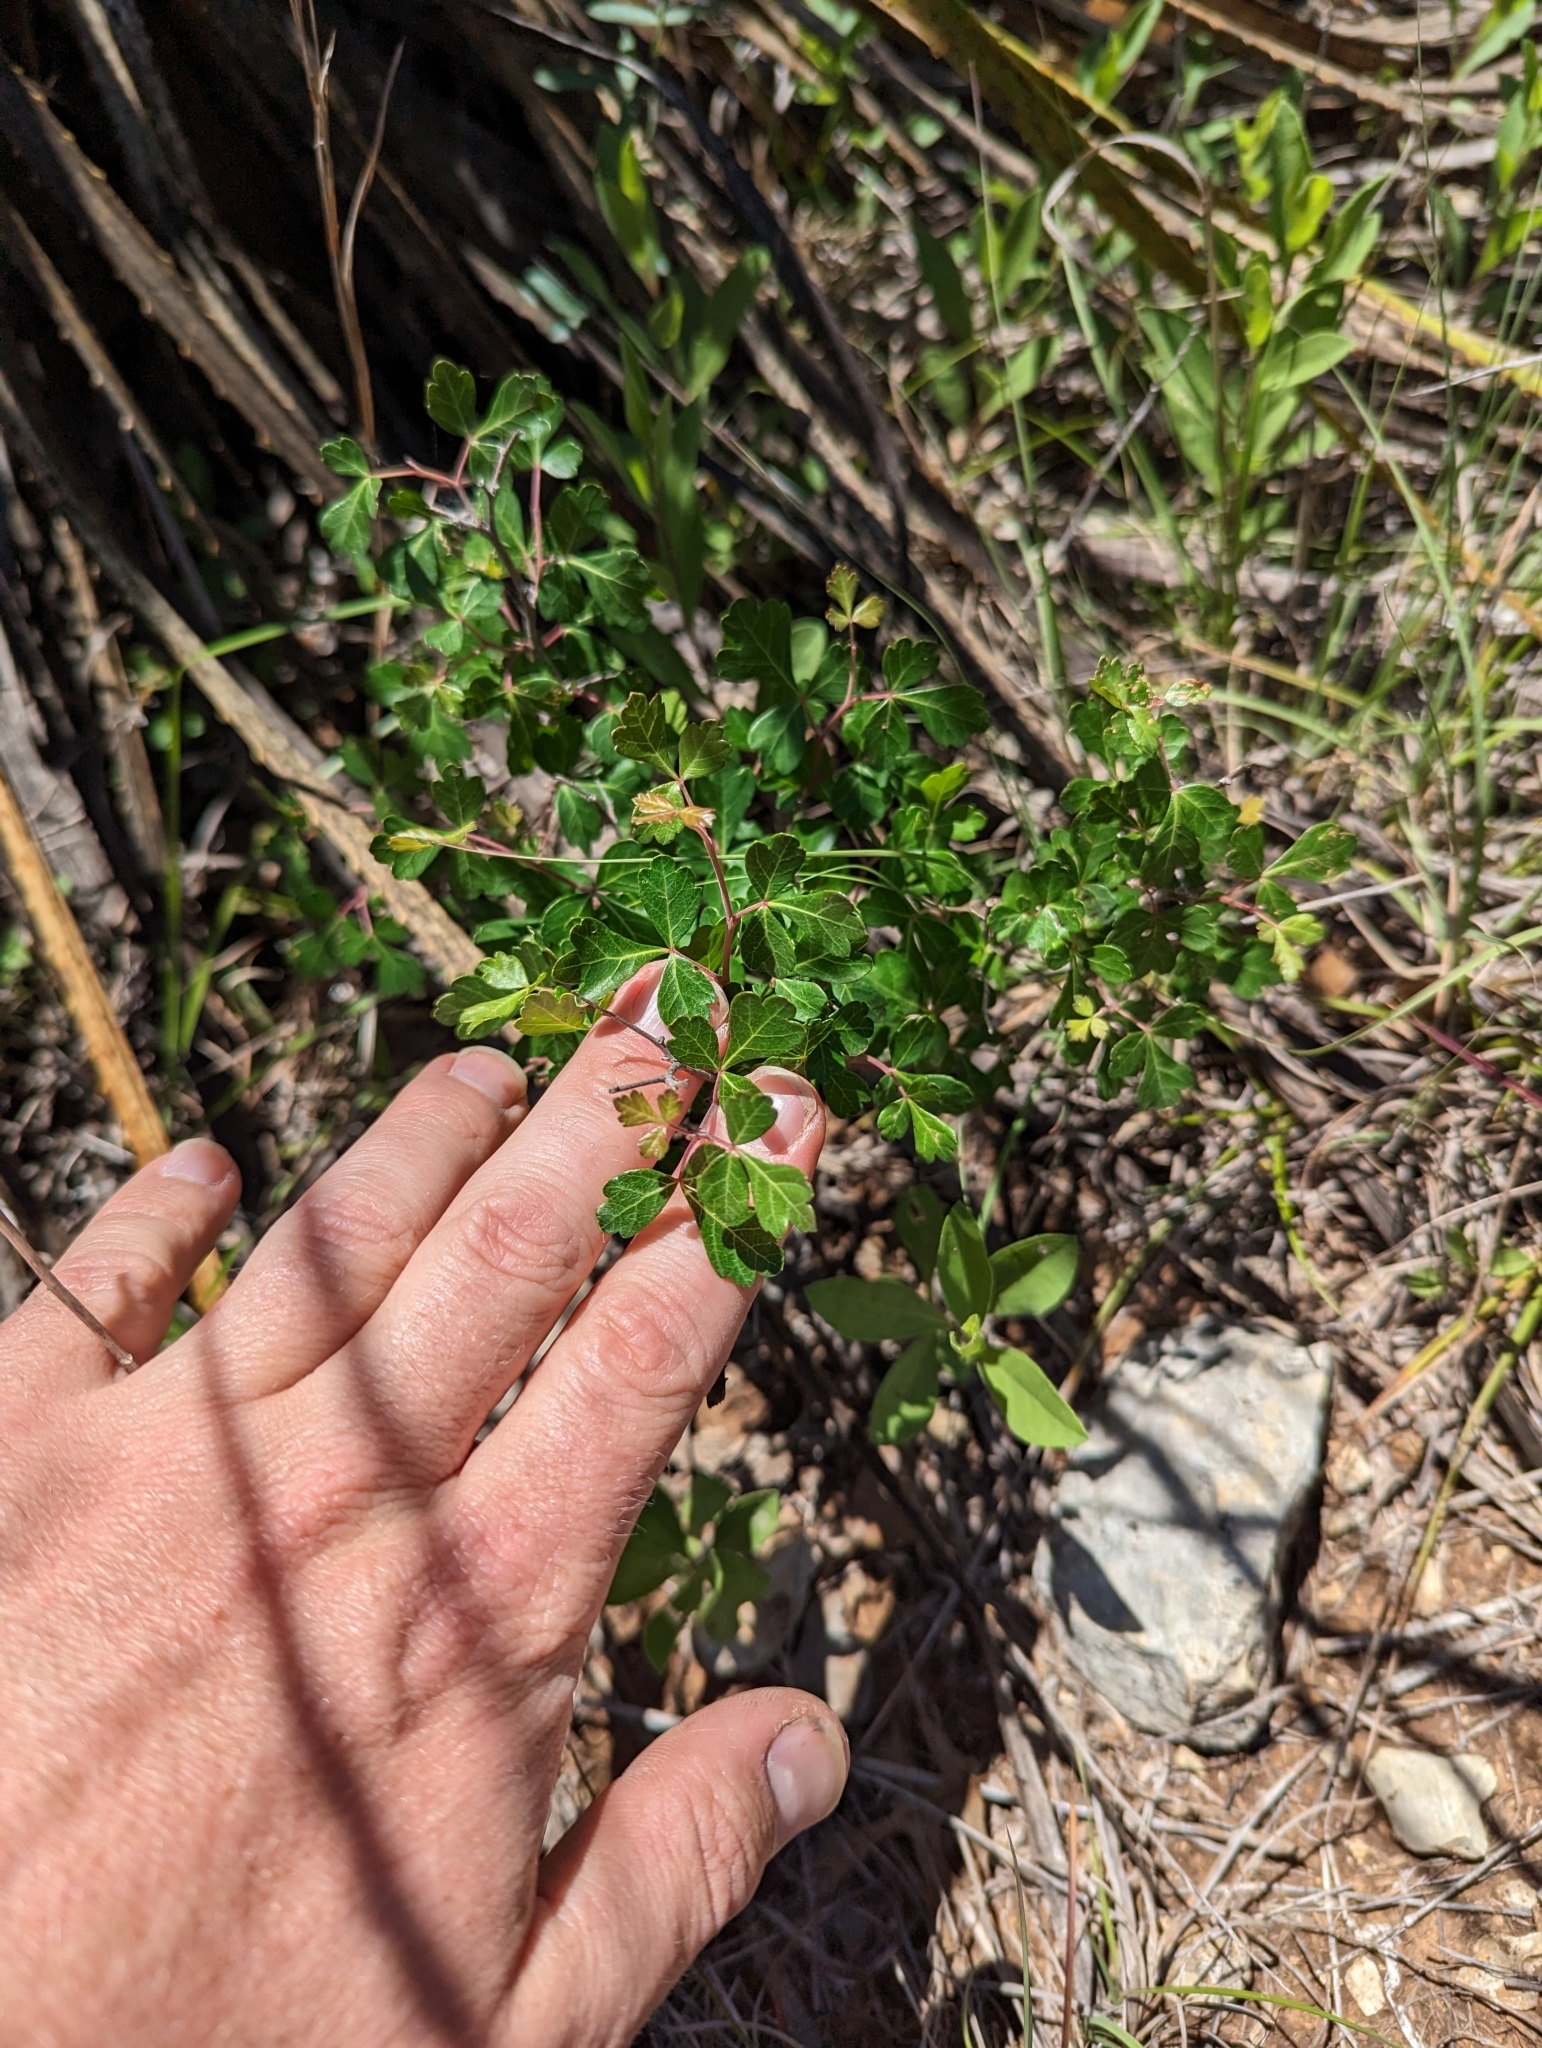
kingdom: Plantae
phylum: Tracheophyta
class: Magnoliopsida
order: Sapindales
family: Anacardiaceae
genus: Rhus
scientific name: Rhus trilobata
